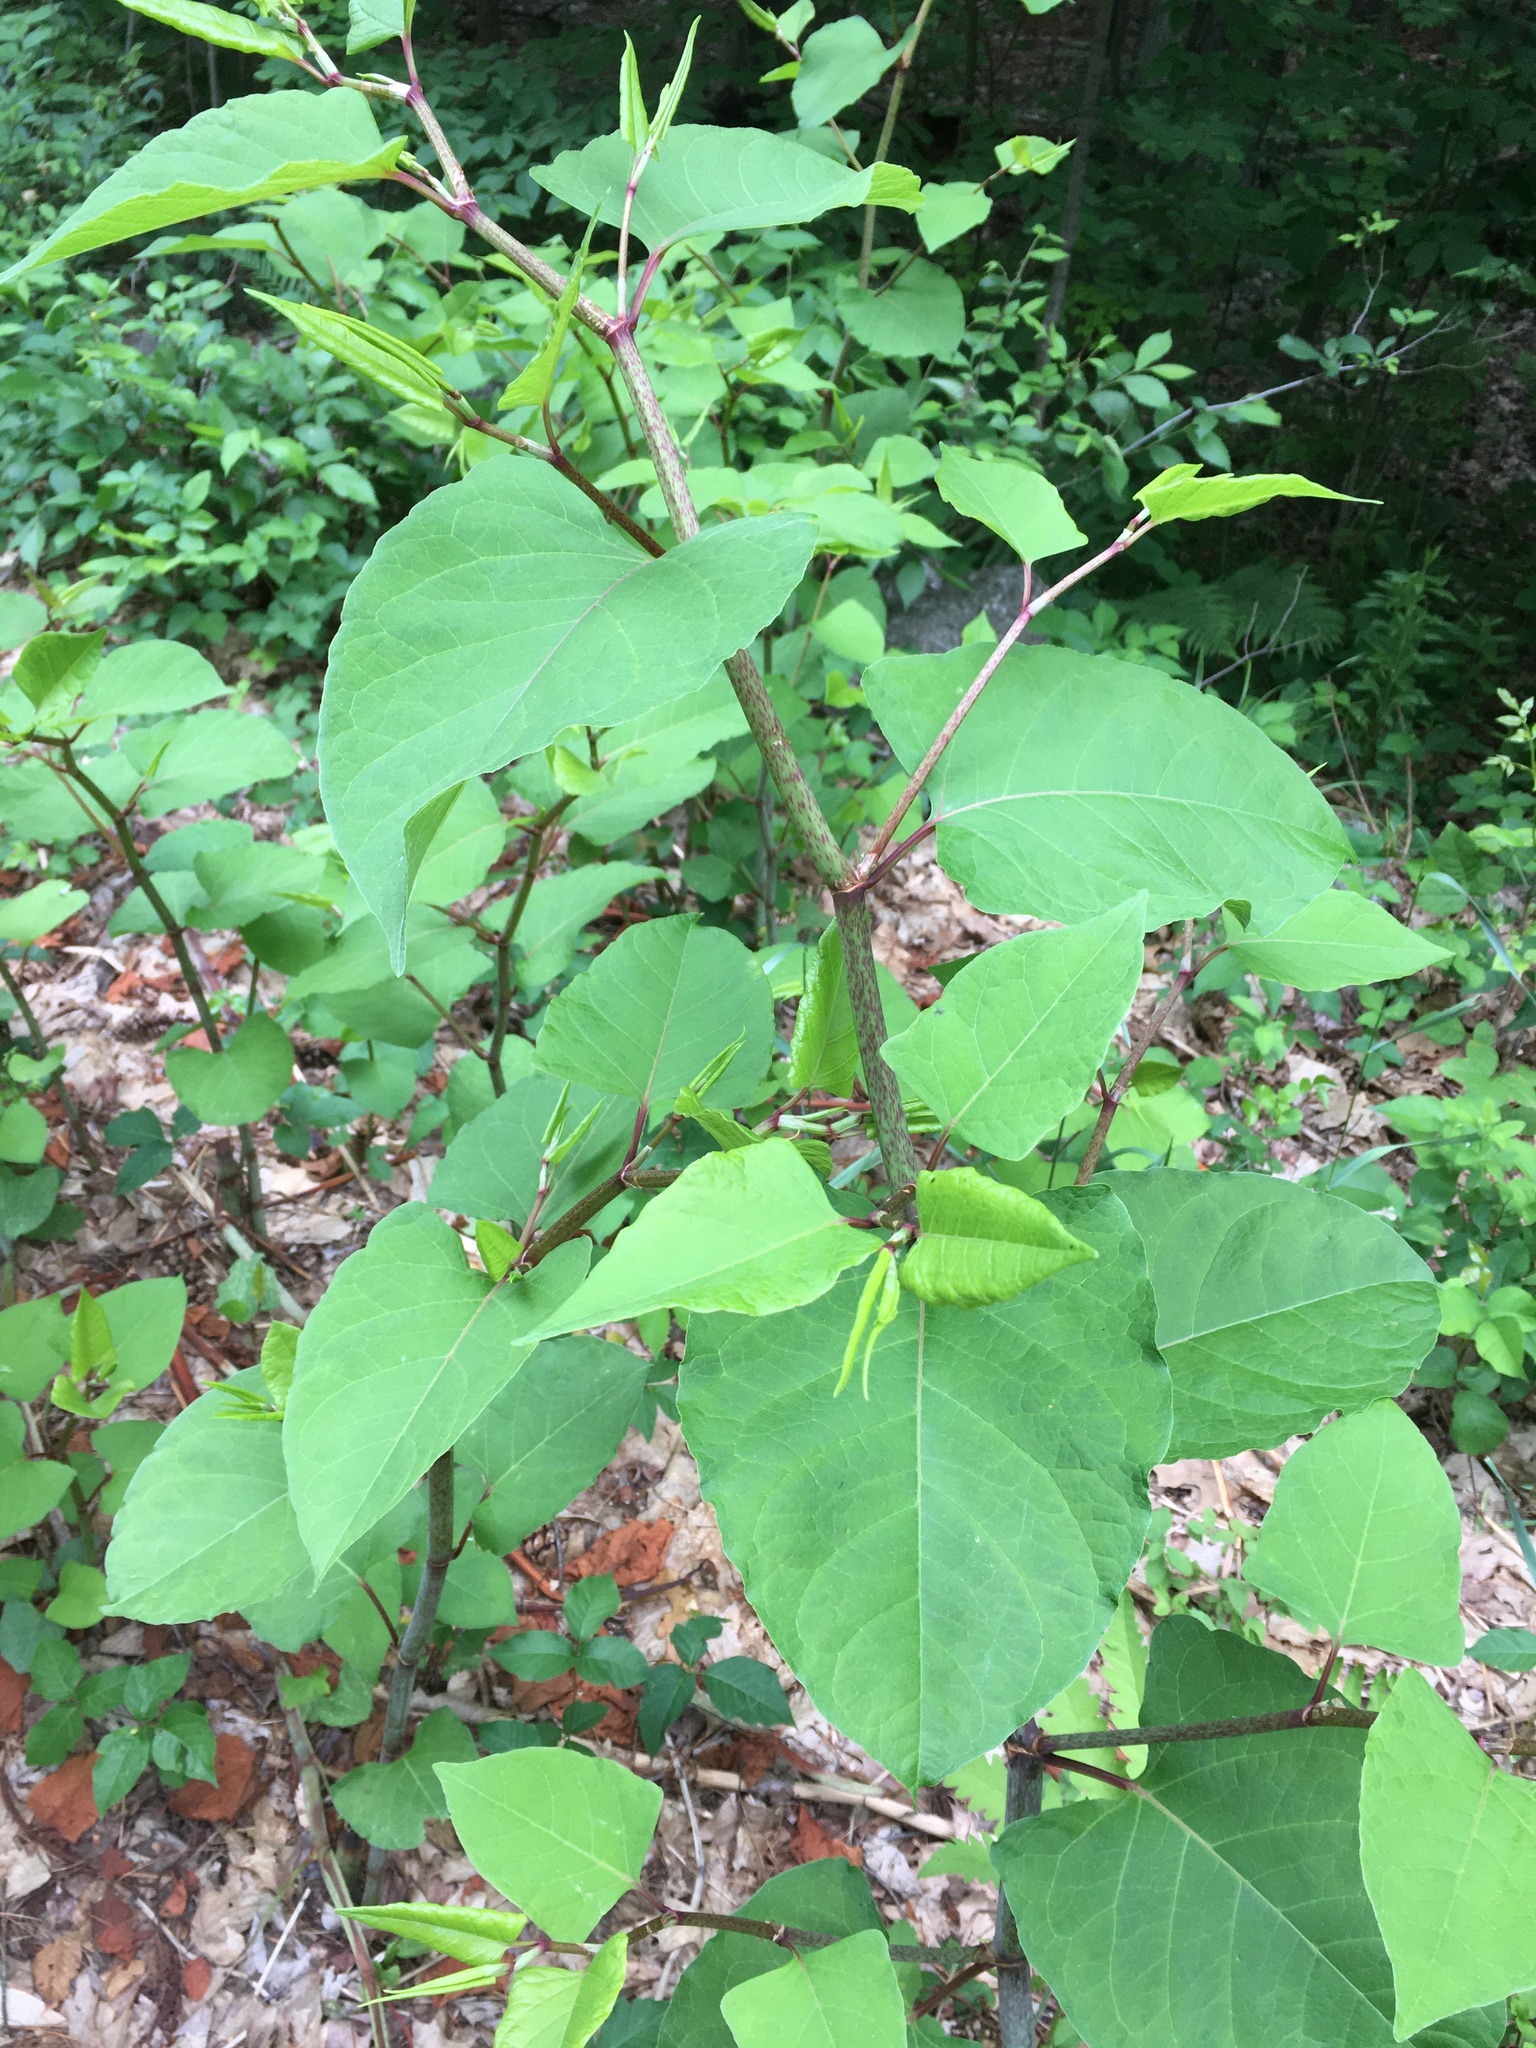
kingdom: Plantae
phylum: Tracheophyta
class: Magnoliopsida
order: Caryophyllales
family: Polygonaceae
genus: Reynoutria
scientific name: Reynoutria japonica
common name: Japanese knotweed
